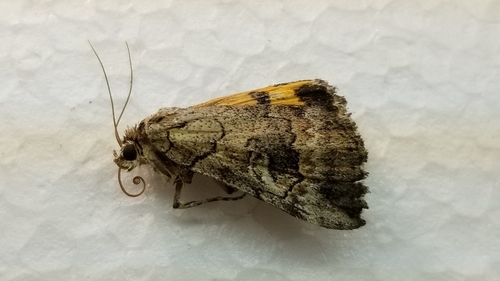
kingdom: Animalia
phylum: Arthropoda
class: Insecta
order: Lepidoptera
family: Erebidae
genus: Catocala
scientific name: Catocala similis
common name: Similar underwing
